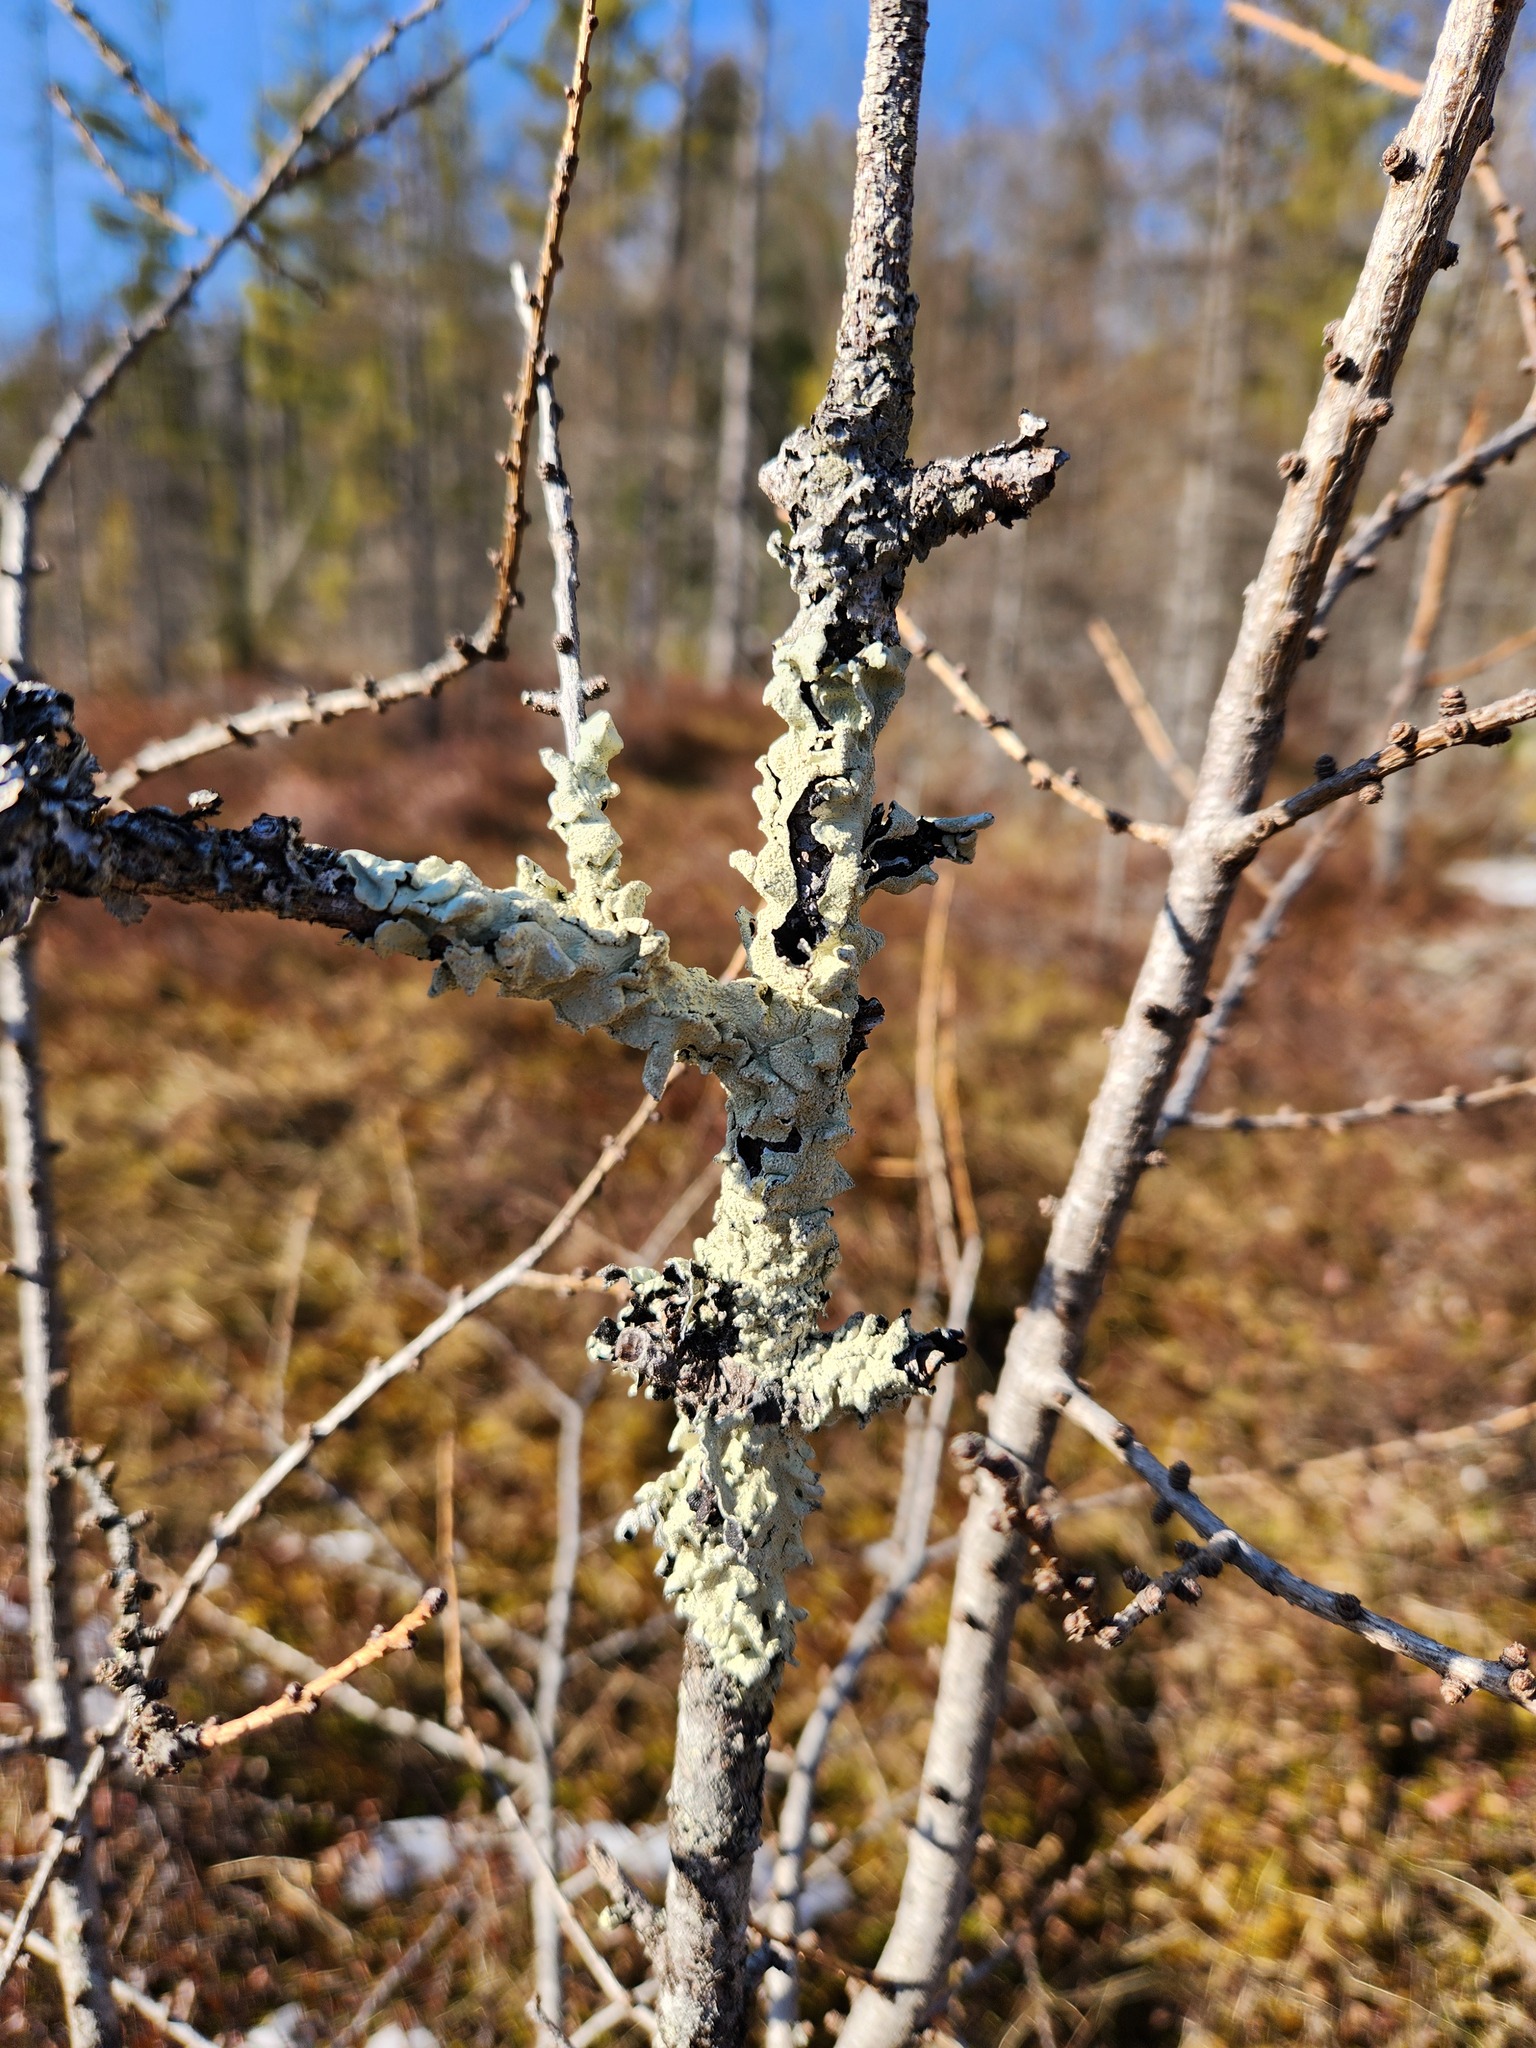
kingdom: Fungi
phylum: Ascomycota
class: Lecanoromycetes
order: Lecanorales
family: Parmeliaceae
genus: Flavoparmelia
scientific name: Flavoparmelia caperata
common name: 40-mile per hour lichen
